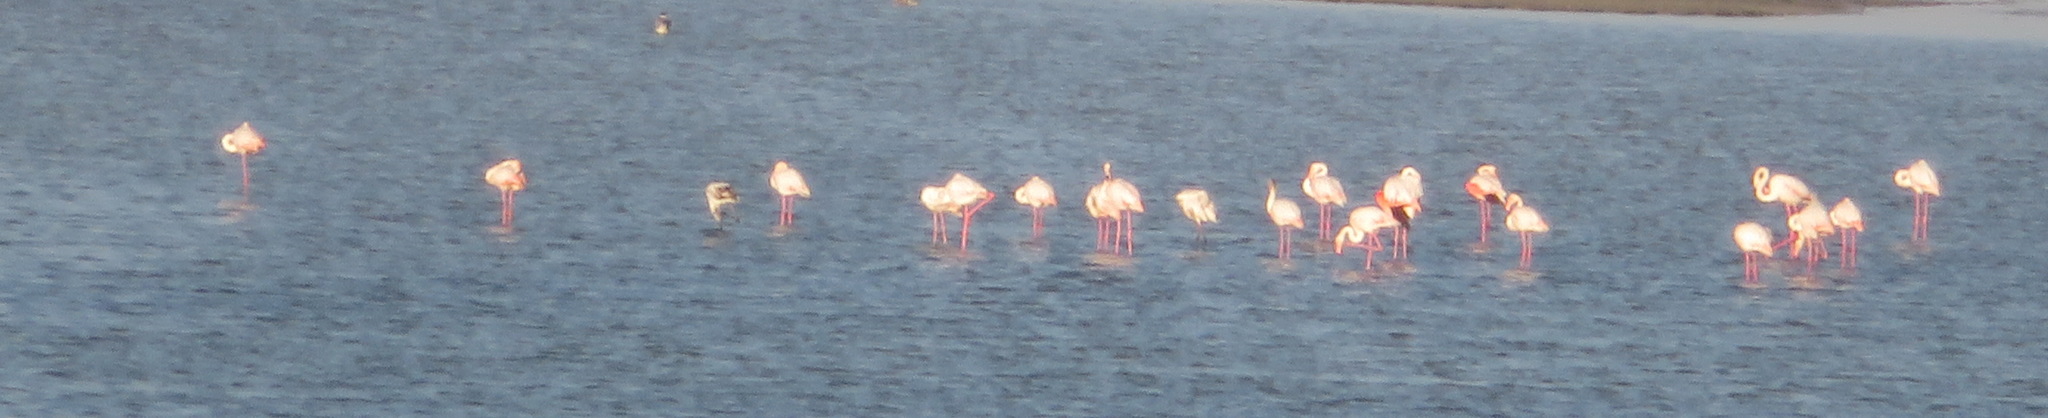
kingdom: Animalia
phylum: Chordata
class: Aves
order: Phoenicopteriformes
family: Phoenicopteridae
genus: Phoenicopterus
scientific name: Phoenicopterus roseus
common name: Greater flamingo
